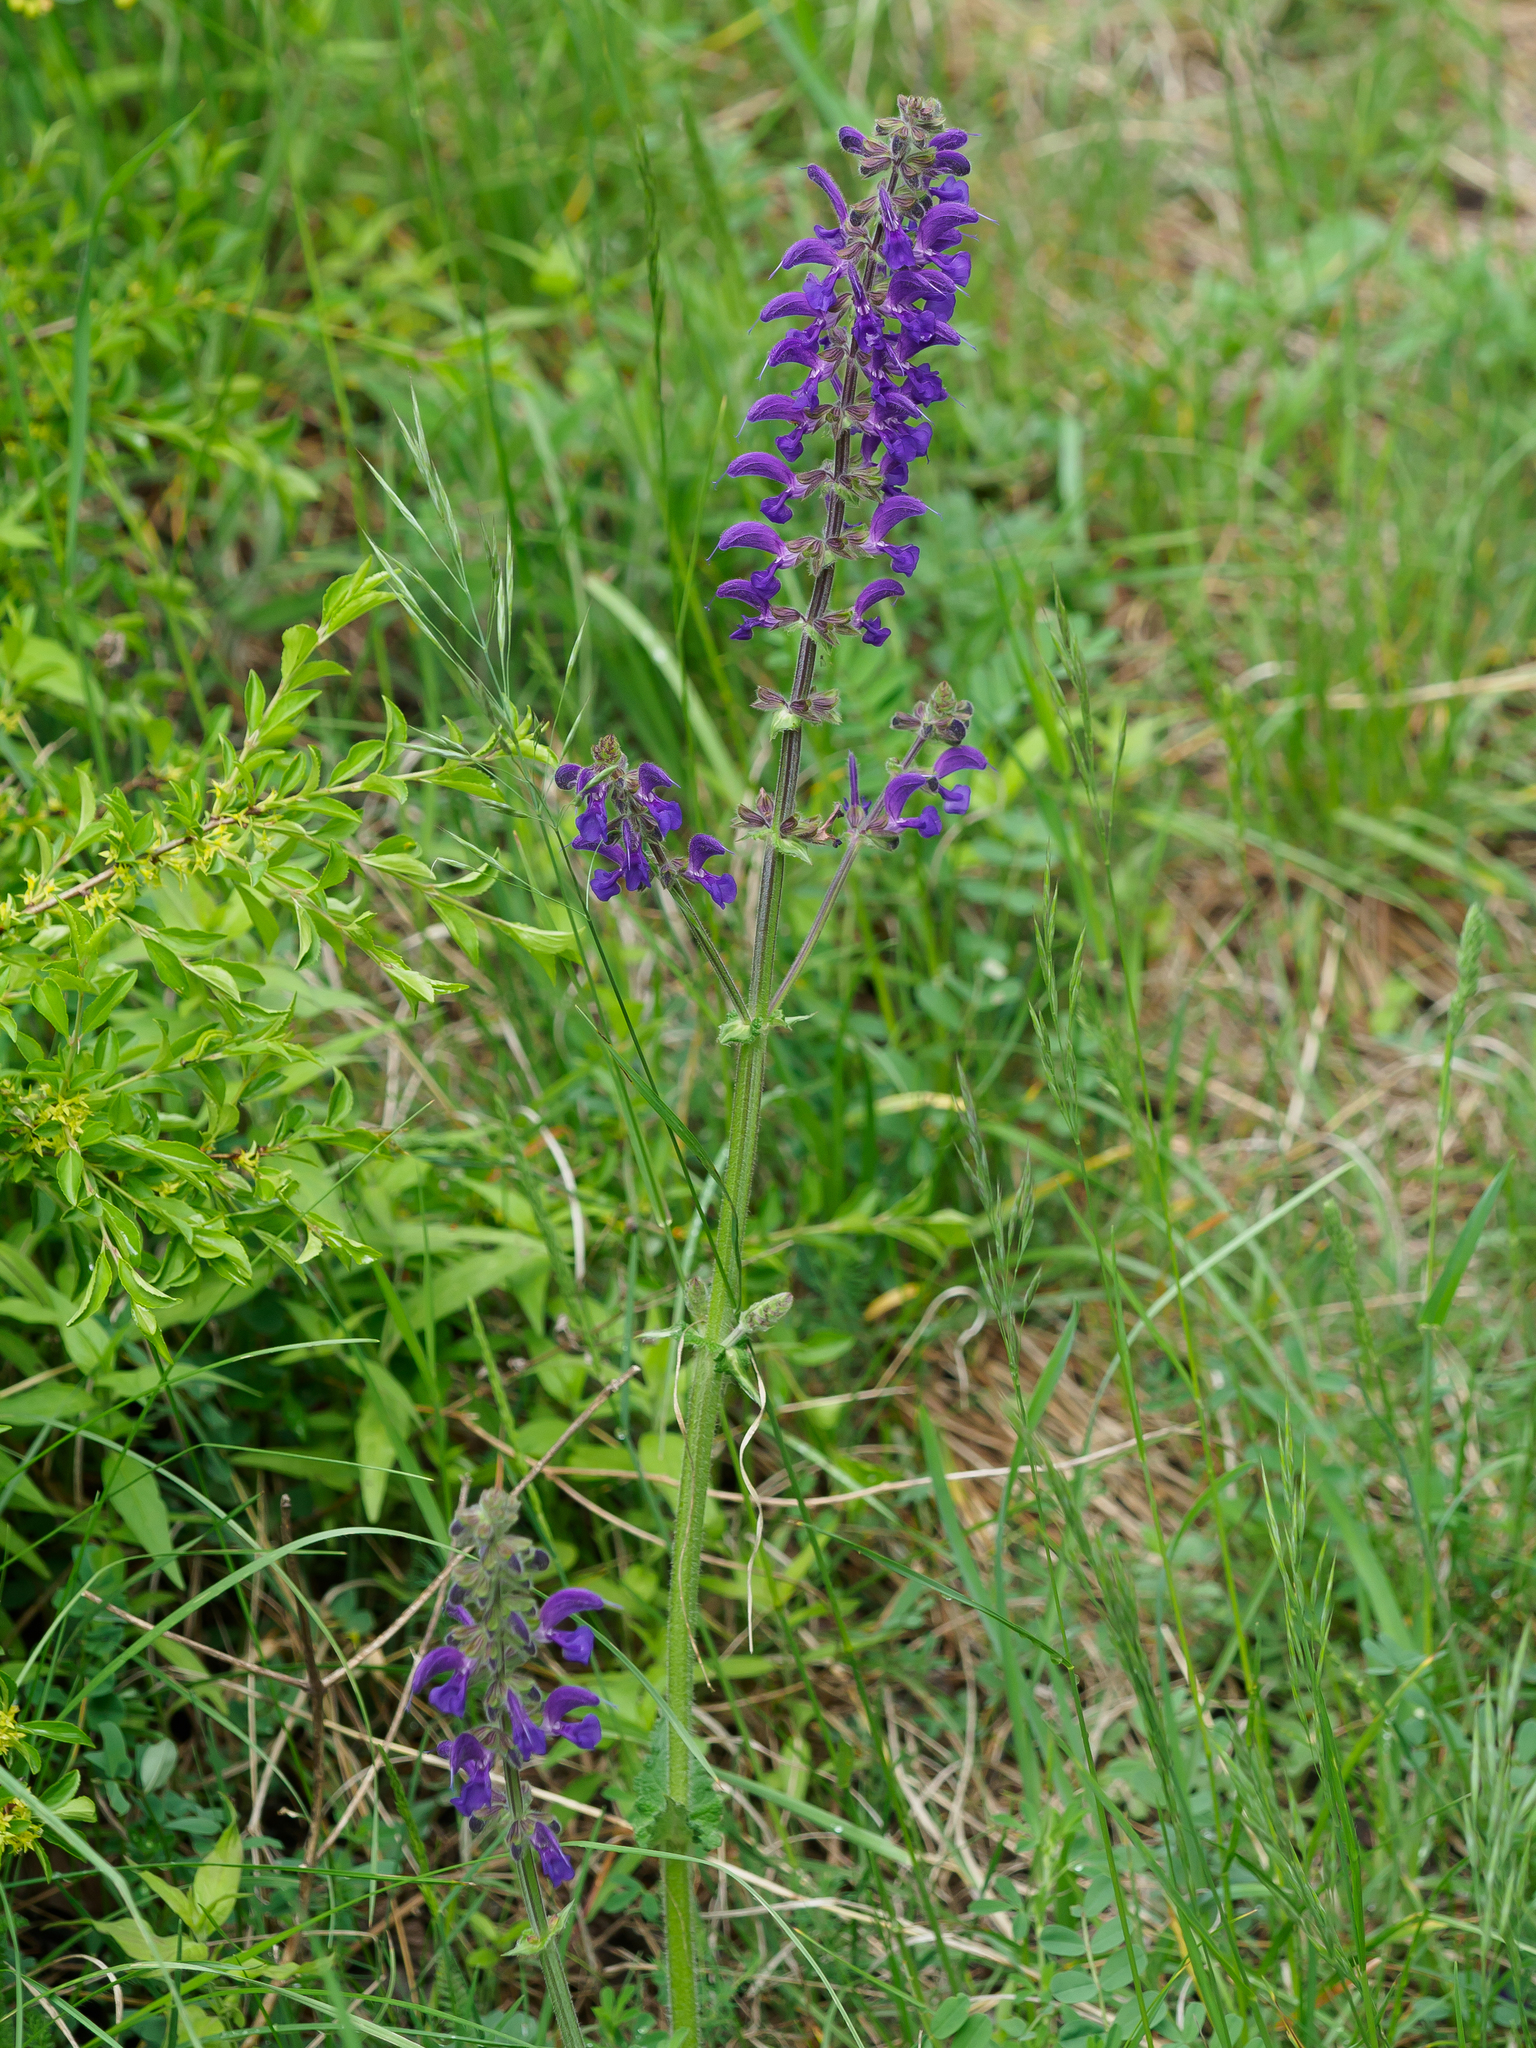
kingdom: Plantae
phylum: Tracheophyta
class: Magnoliopsida
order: Lamiales
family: Lamiaceae
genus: Salvia
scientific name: Salvia pratensis
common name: Meadow sage
